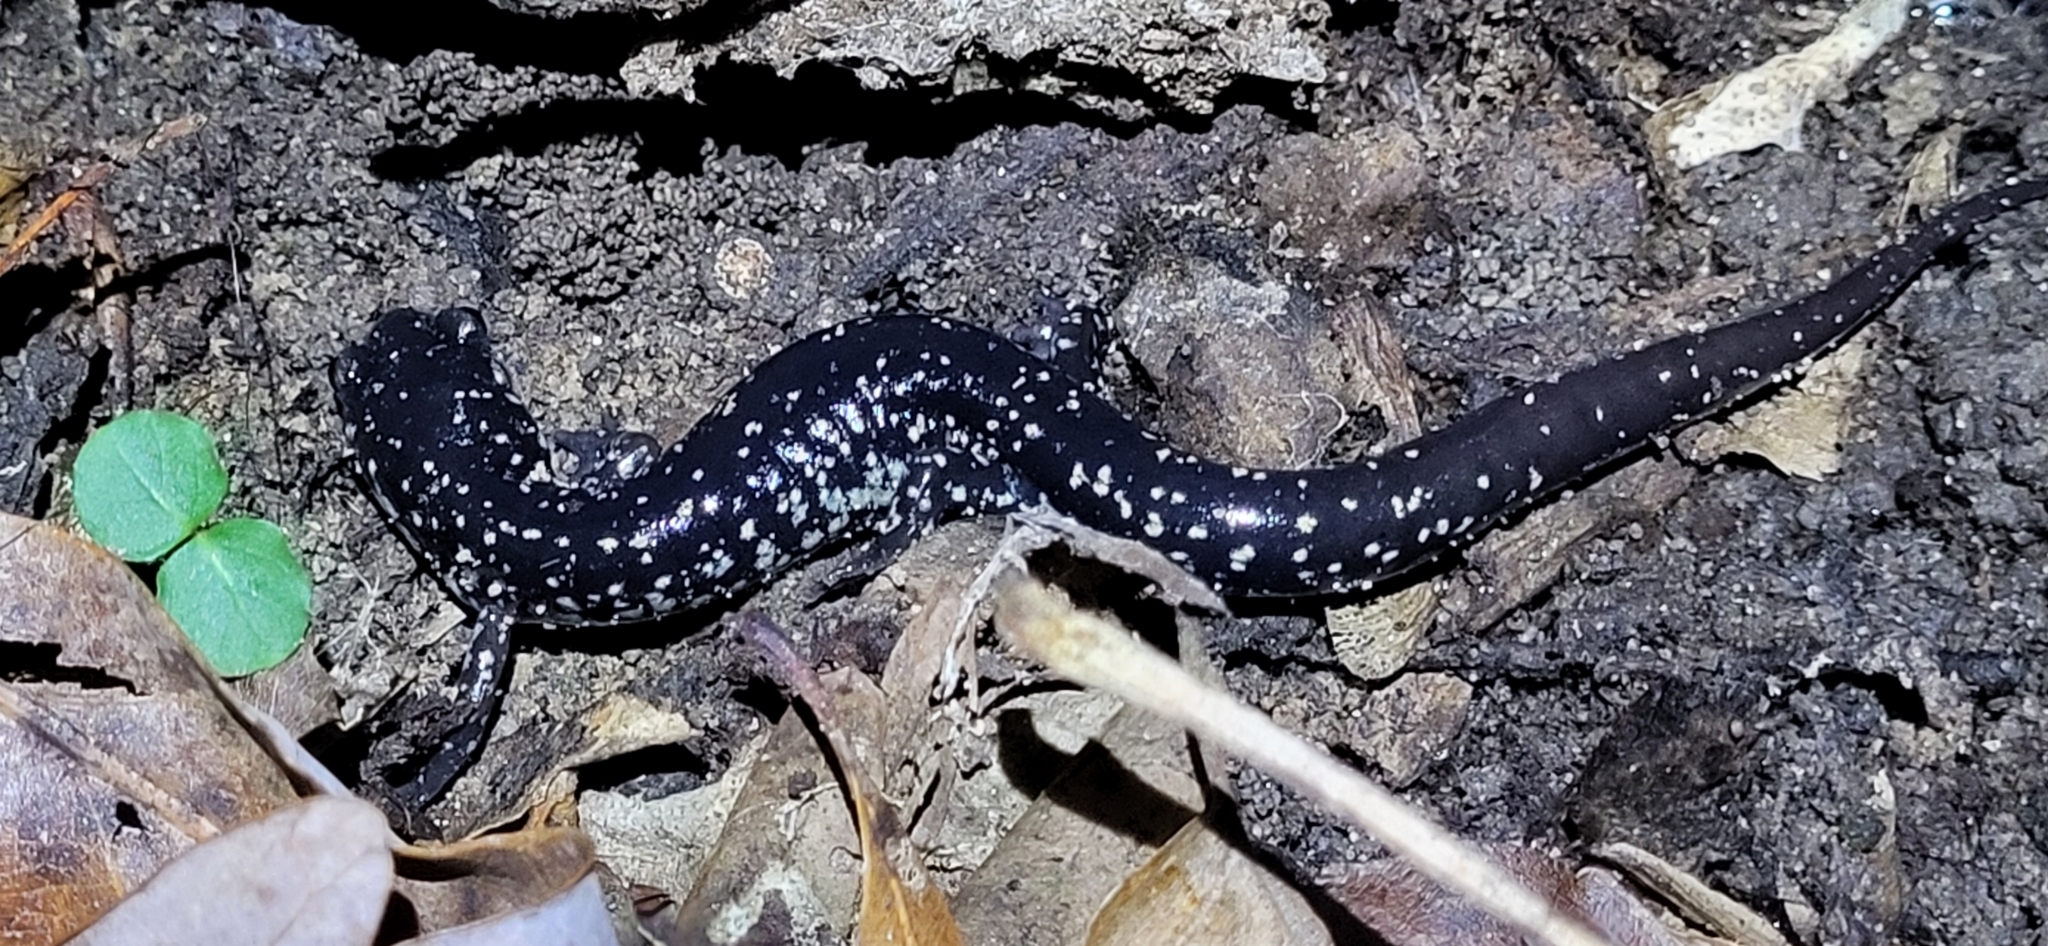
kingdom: Animalia
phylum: Chordata
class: Amphibia
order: Caudata
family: Plethodontidae
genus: Plethodon
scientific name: Plethodon mississippi
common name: Mississippi slimy salamander
